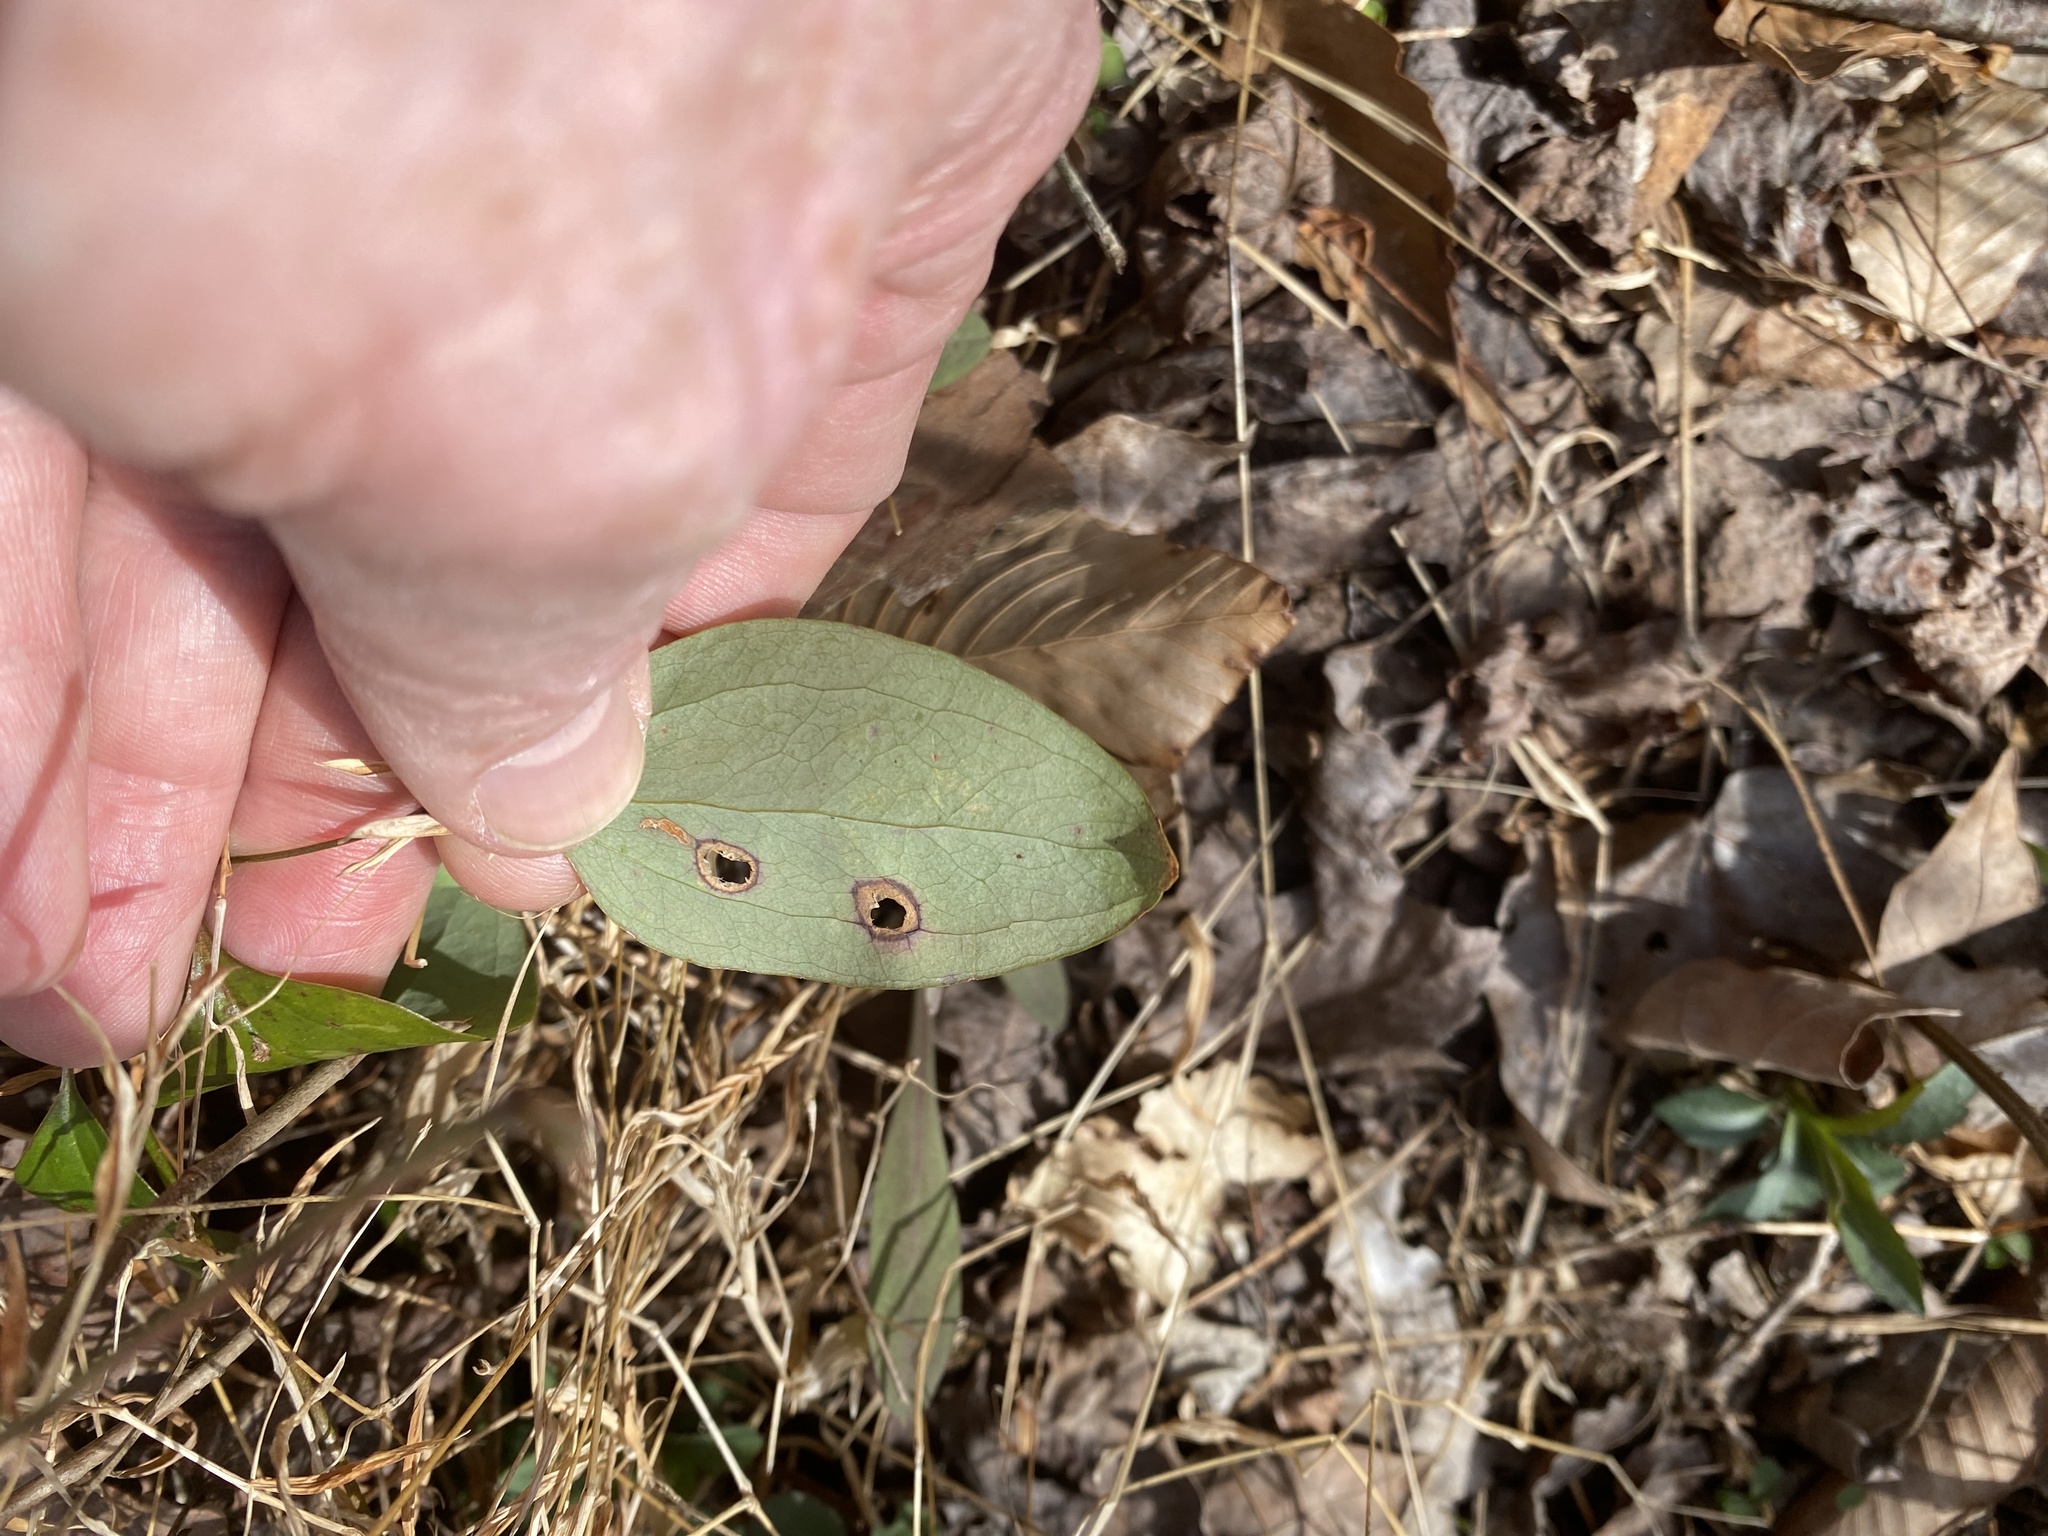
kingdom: Plantae
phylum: Tracheophyta
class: Liliopsida
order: Liliales
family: Smilacaceae
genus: Smilax
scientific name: Smilax glauca
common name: Cat greenbrier
